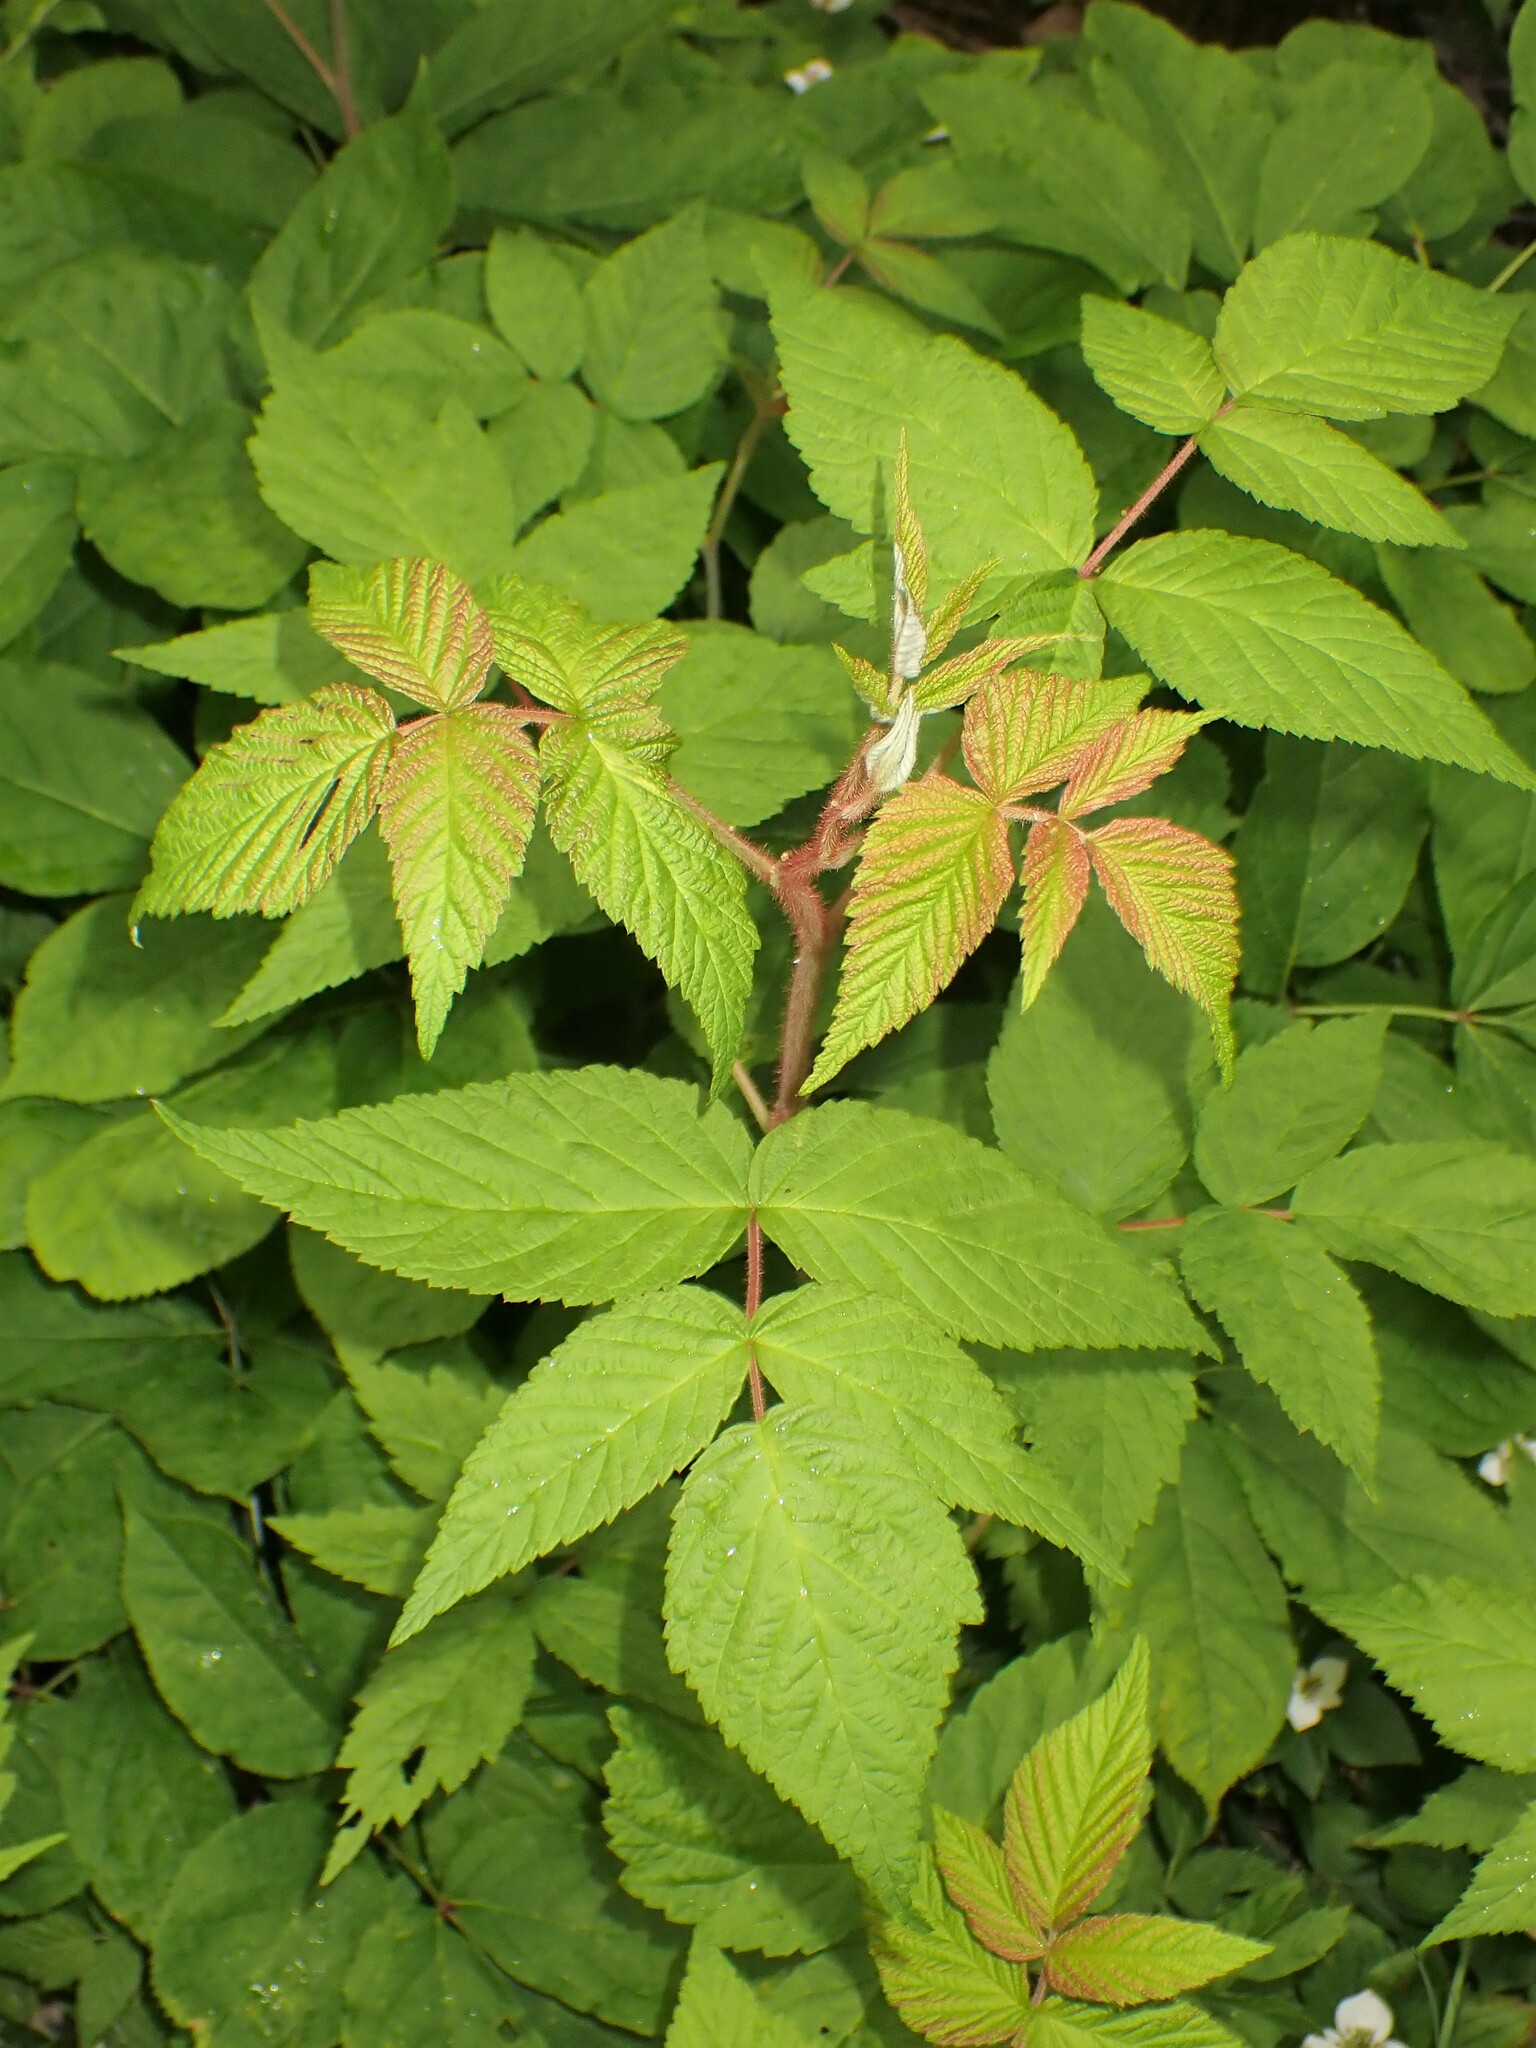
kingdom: Plantae
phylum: Tracheophyta
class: Magnoliopsida
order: Rosales
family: Rosaceae
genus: Rubus
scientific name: Rubus idaeus
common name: Raspberry
